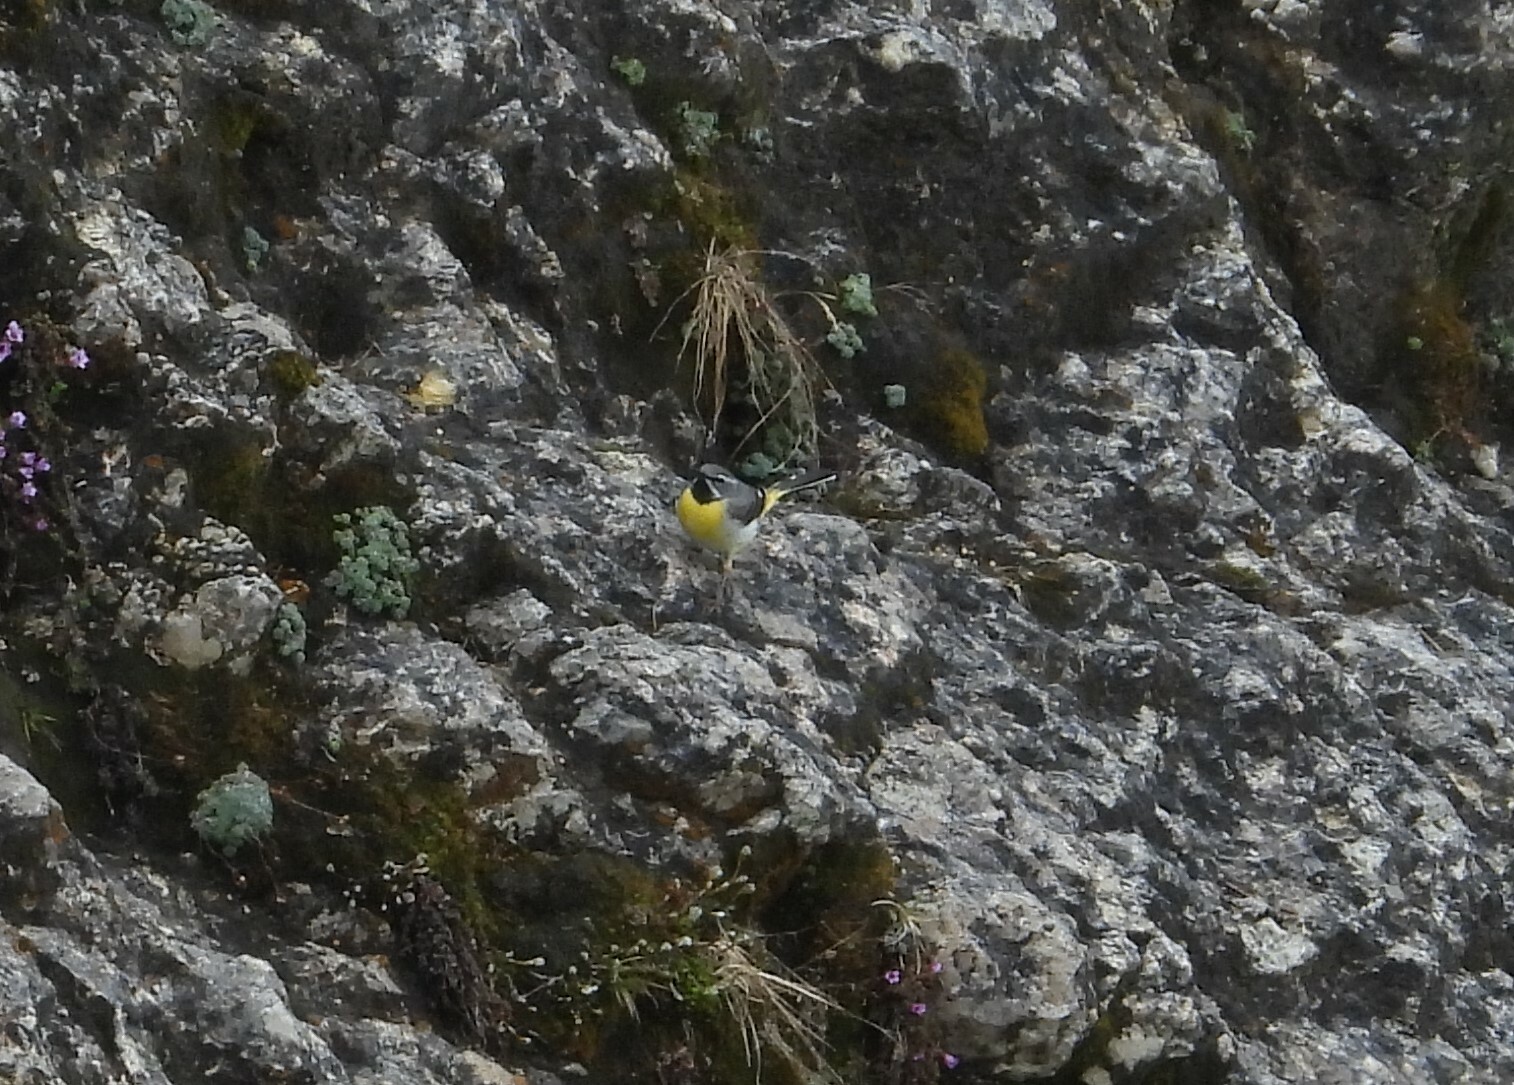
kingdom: Animalia
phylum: Chordata
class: Aves
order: Passeriformes
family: Motacillidae
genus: Motacilla
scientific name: Motacilla cinerea
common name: Grey wagtail
